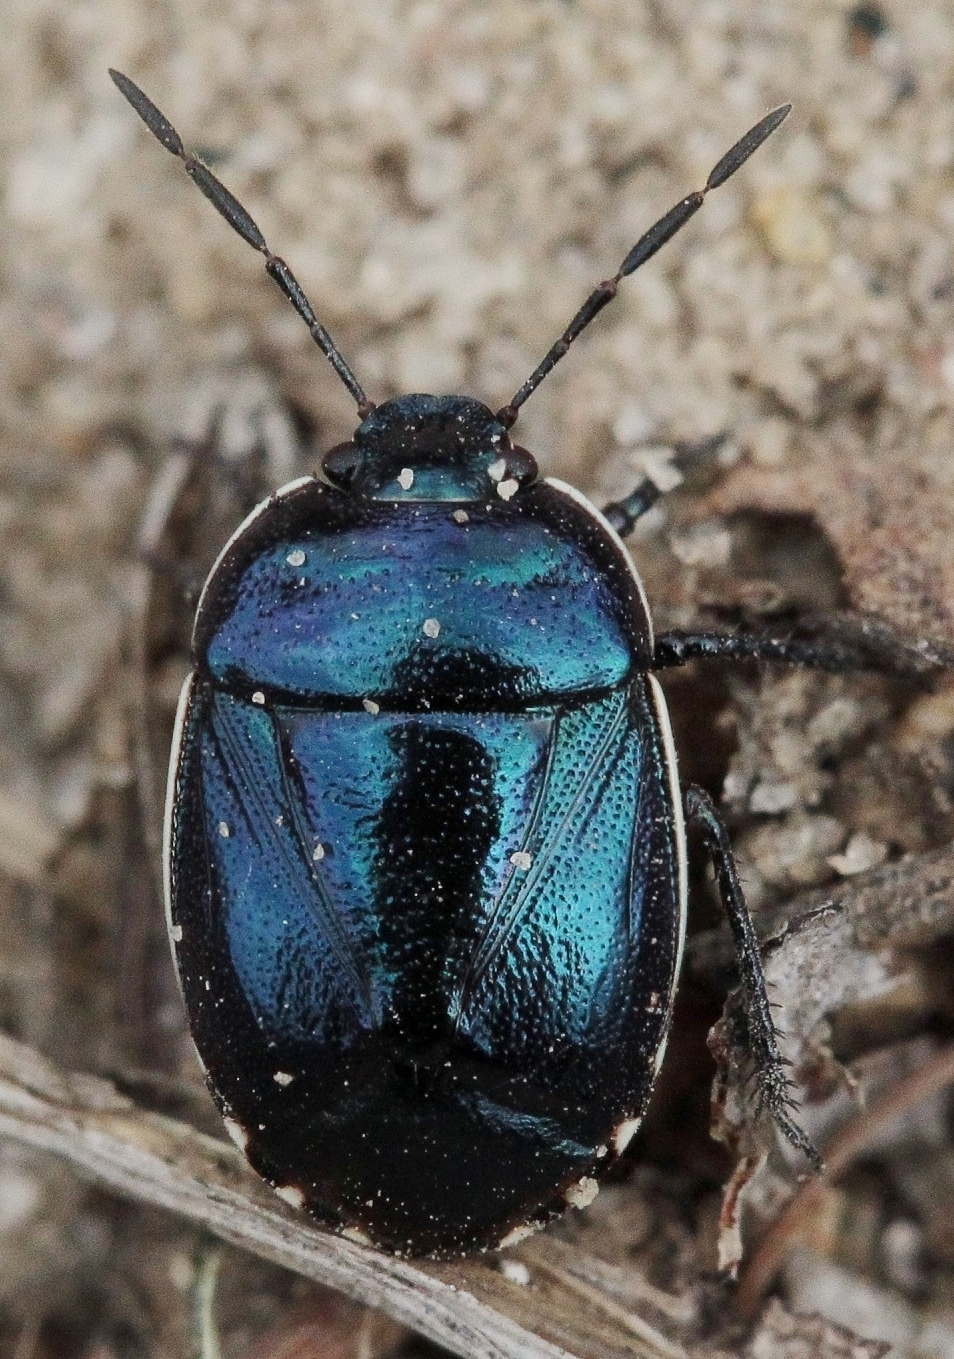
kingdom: Animalia
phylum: Arthropoda
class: Insecta
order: Hemiptera
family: Cydnidae
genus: Canthophorus
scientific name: Canthophorus melanopterus
